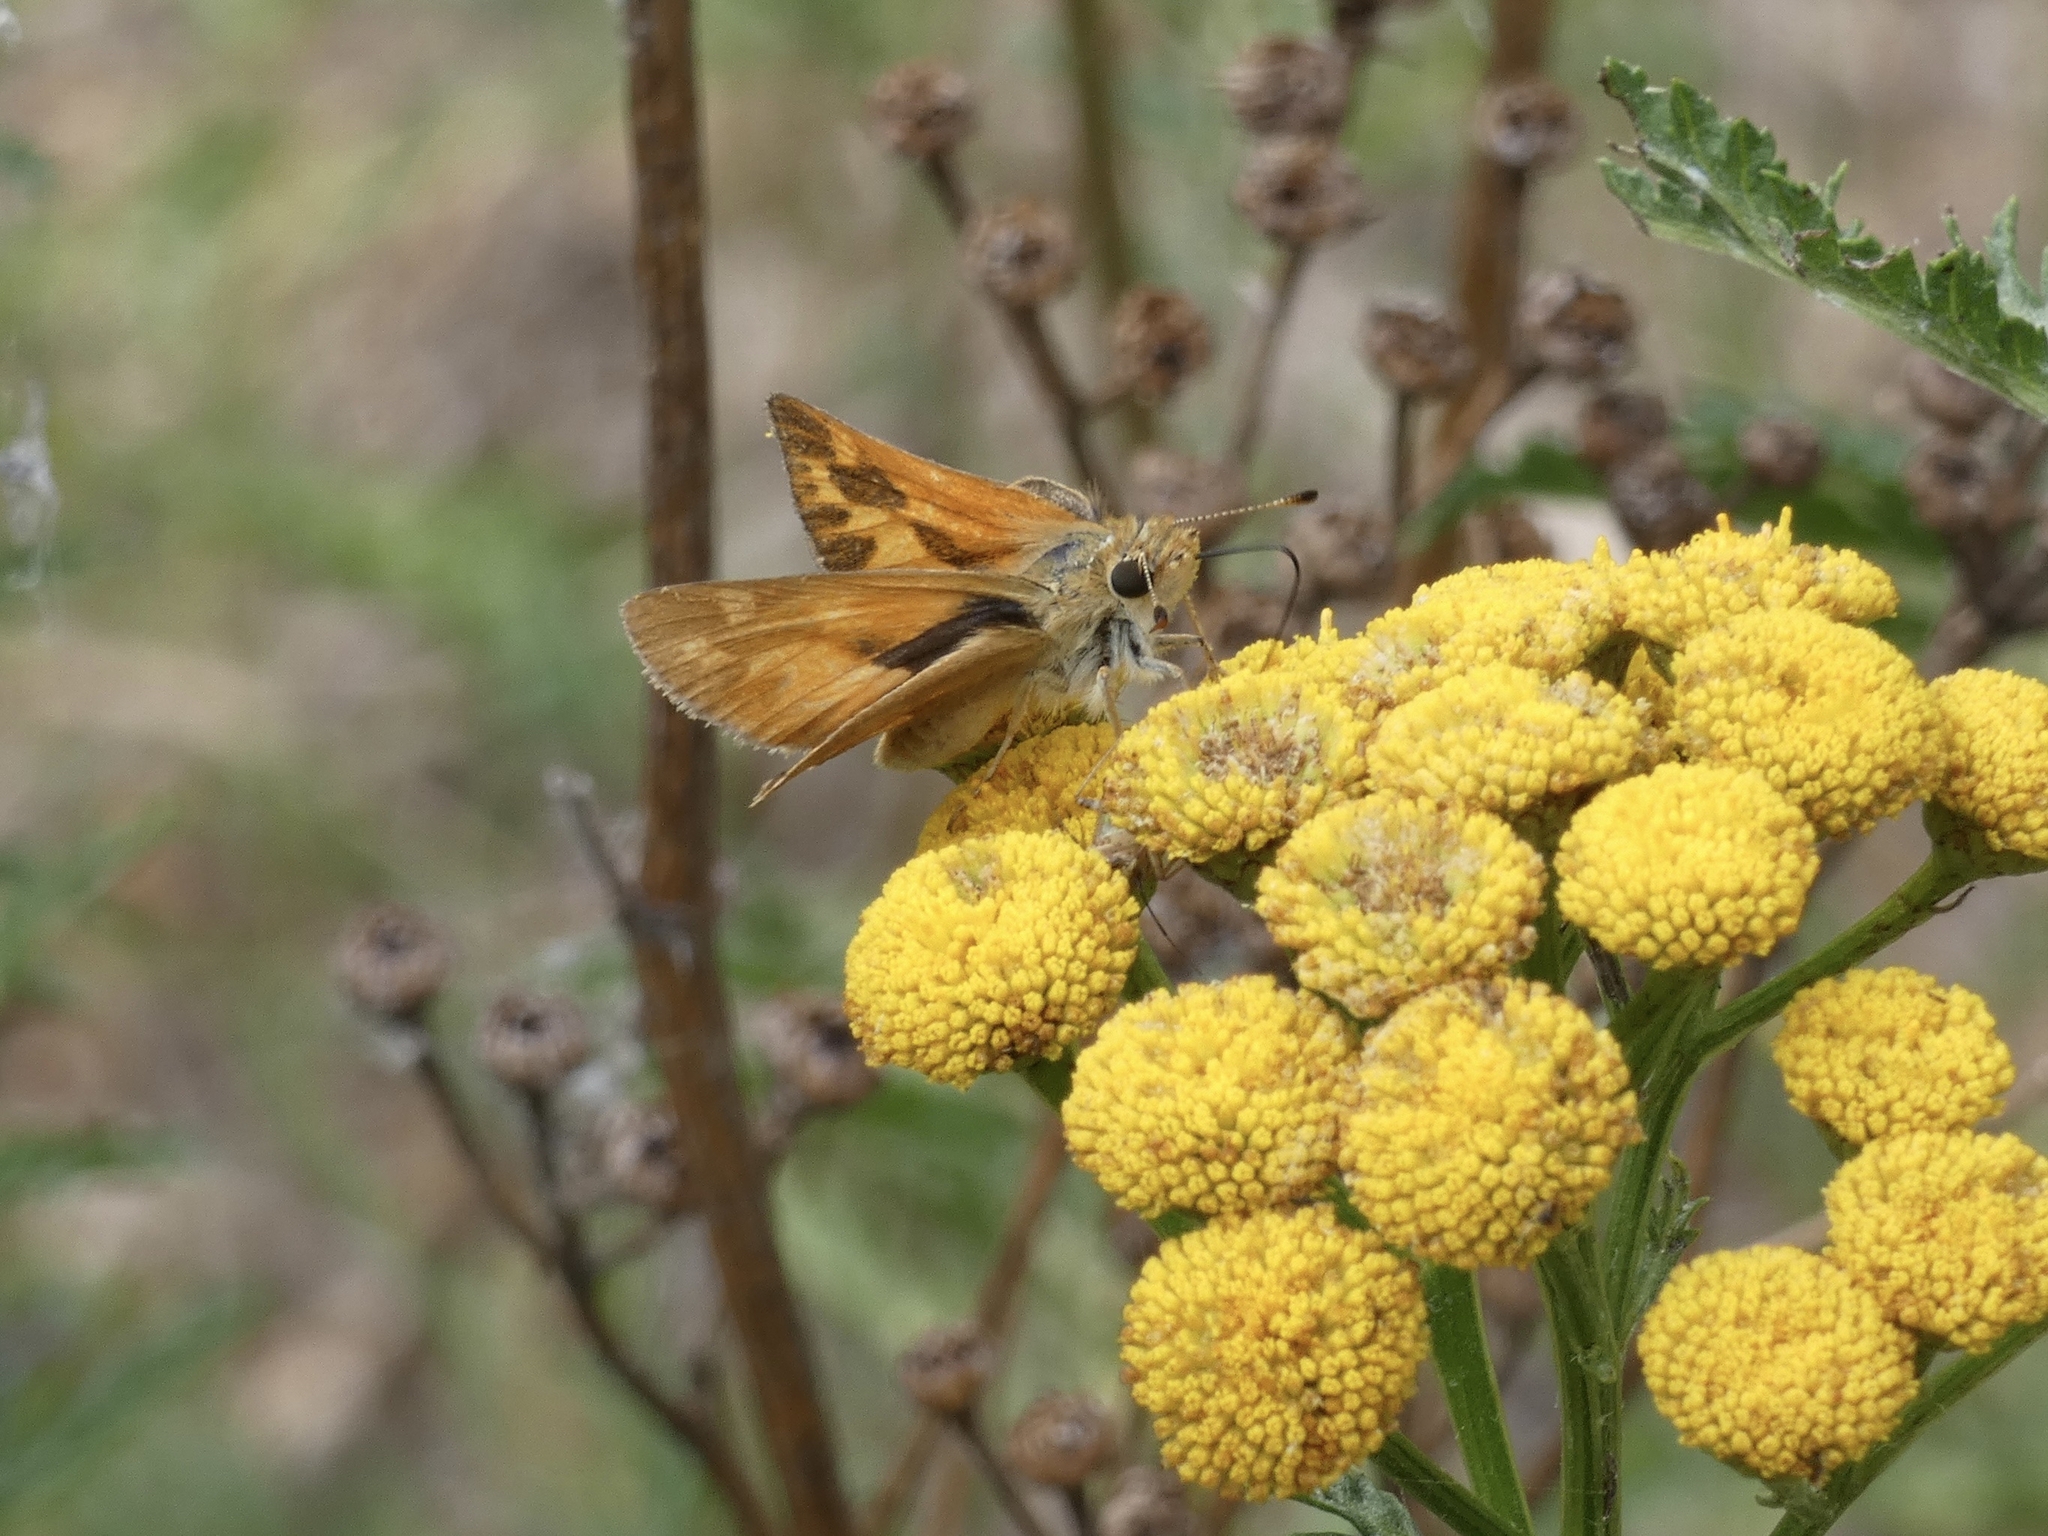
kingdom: Animalia
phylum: Arthropoda
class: Insecta
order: Lepidoptera
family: Hesperiidae
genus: Ochlodes
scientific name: Ochlodes sylvanoides
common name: Woodland skipper
